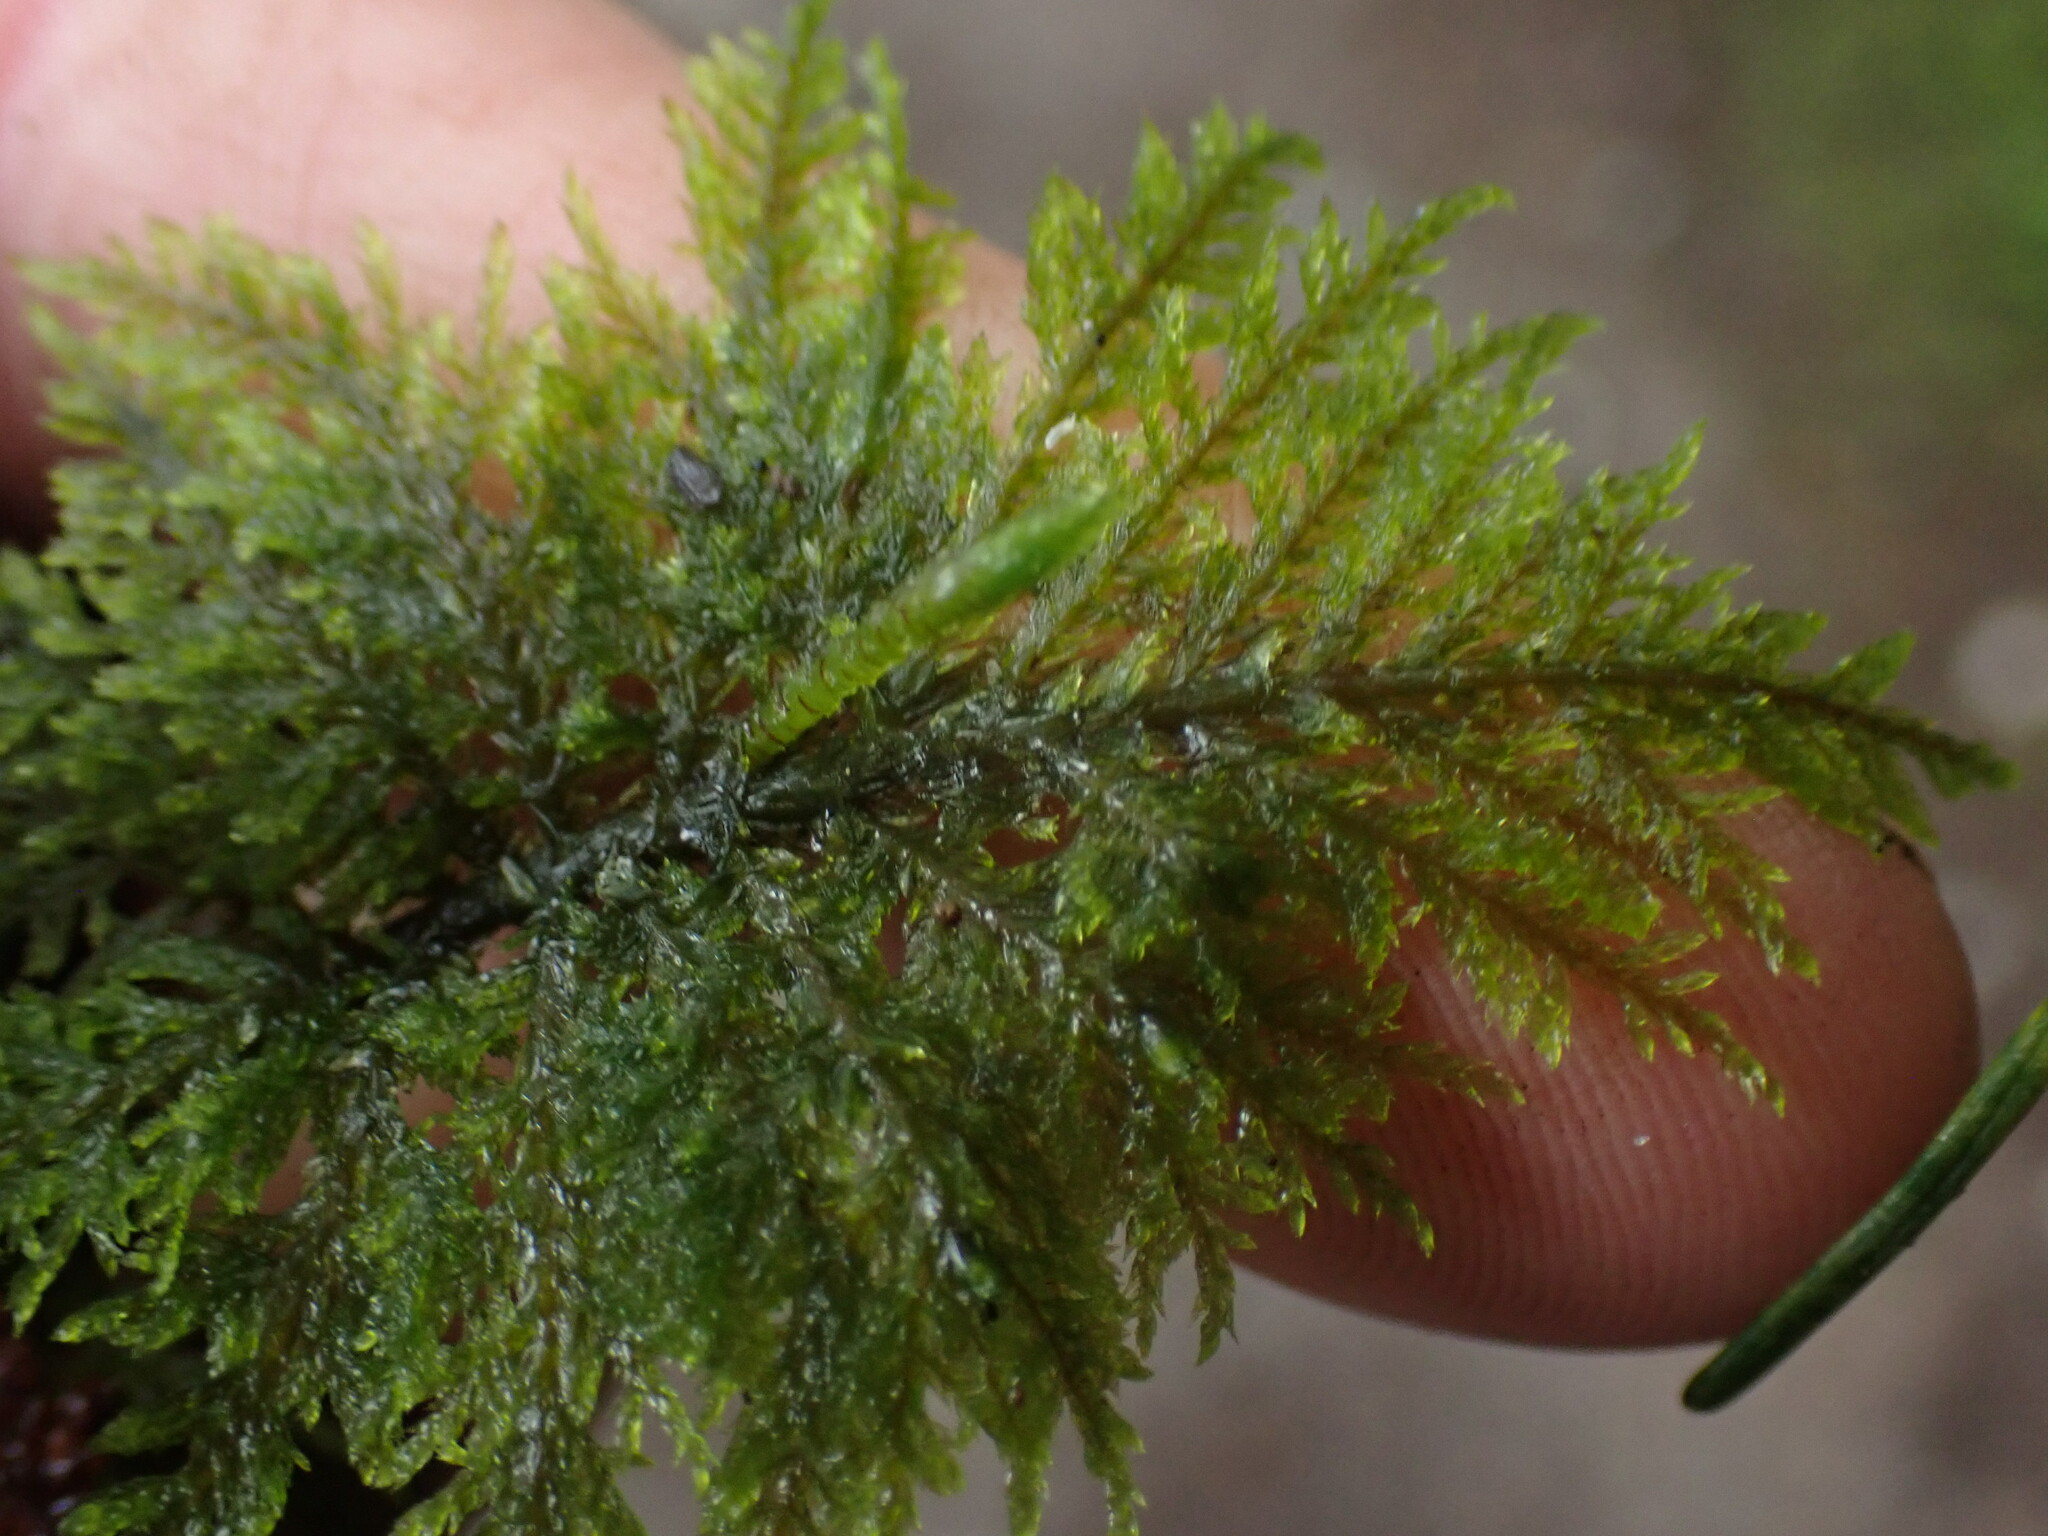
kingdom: Plantae
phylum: Bryophyta
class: Bryopsida
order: Hypnales
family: Hylocomiaceae
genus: Hylocomium
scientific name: Hylocomium splendens
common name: Stairstep moss
